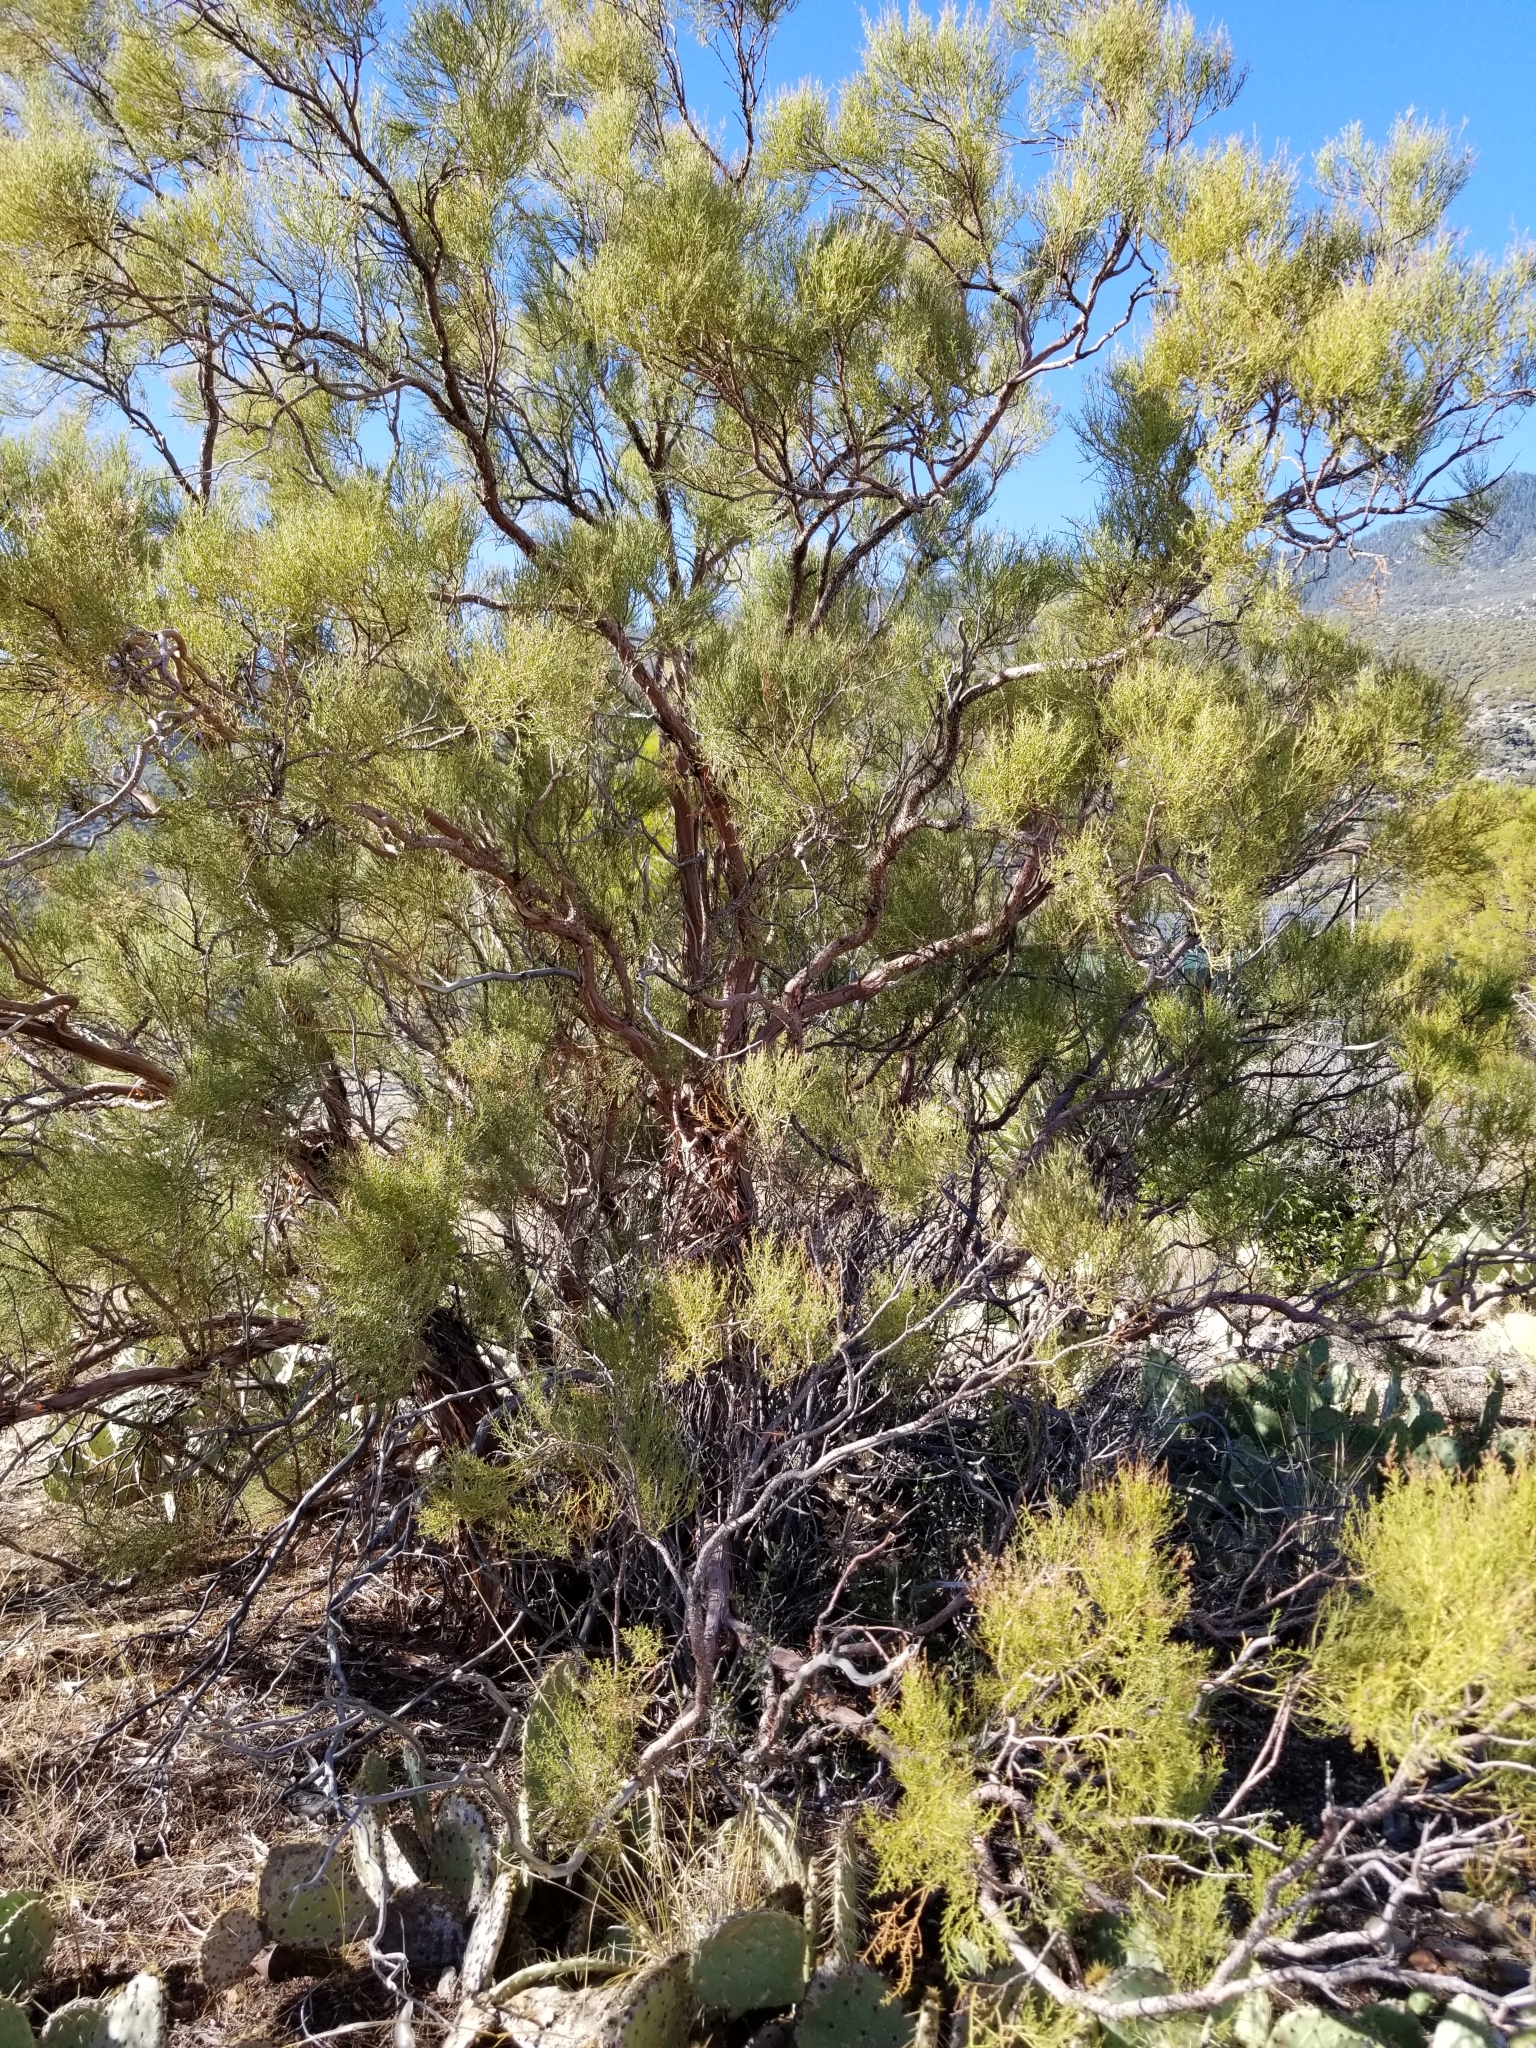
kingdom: Plantae
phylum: Tracheophyta
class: Magnoliopsida
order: Rosales
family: Rosaceae
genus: Adenostoma
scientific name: Adenostoma sparsifolium
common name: Red shank
